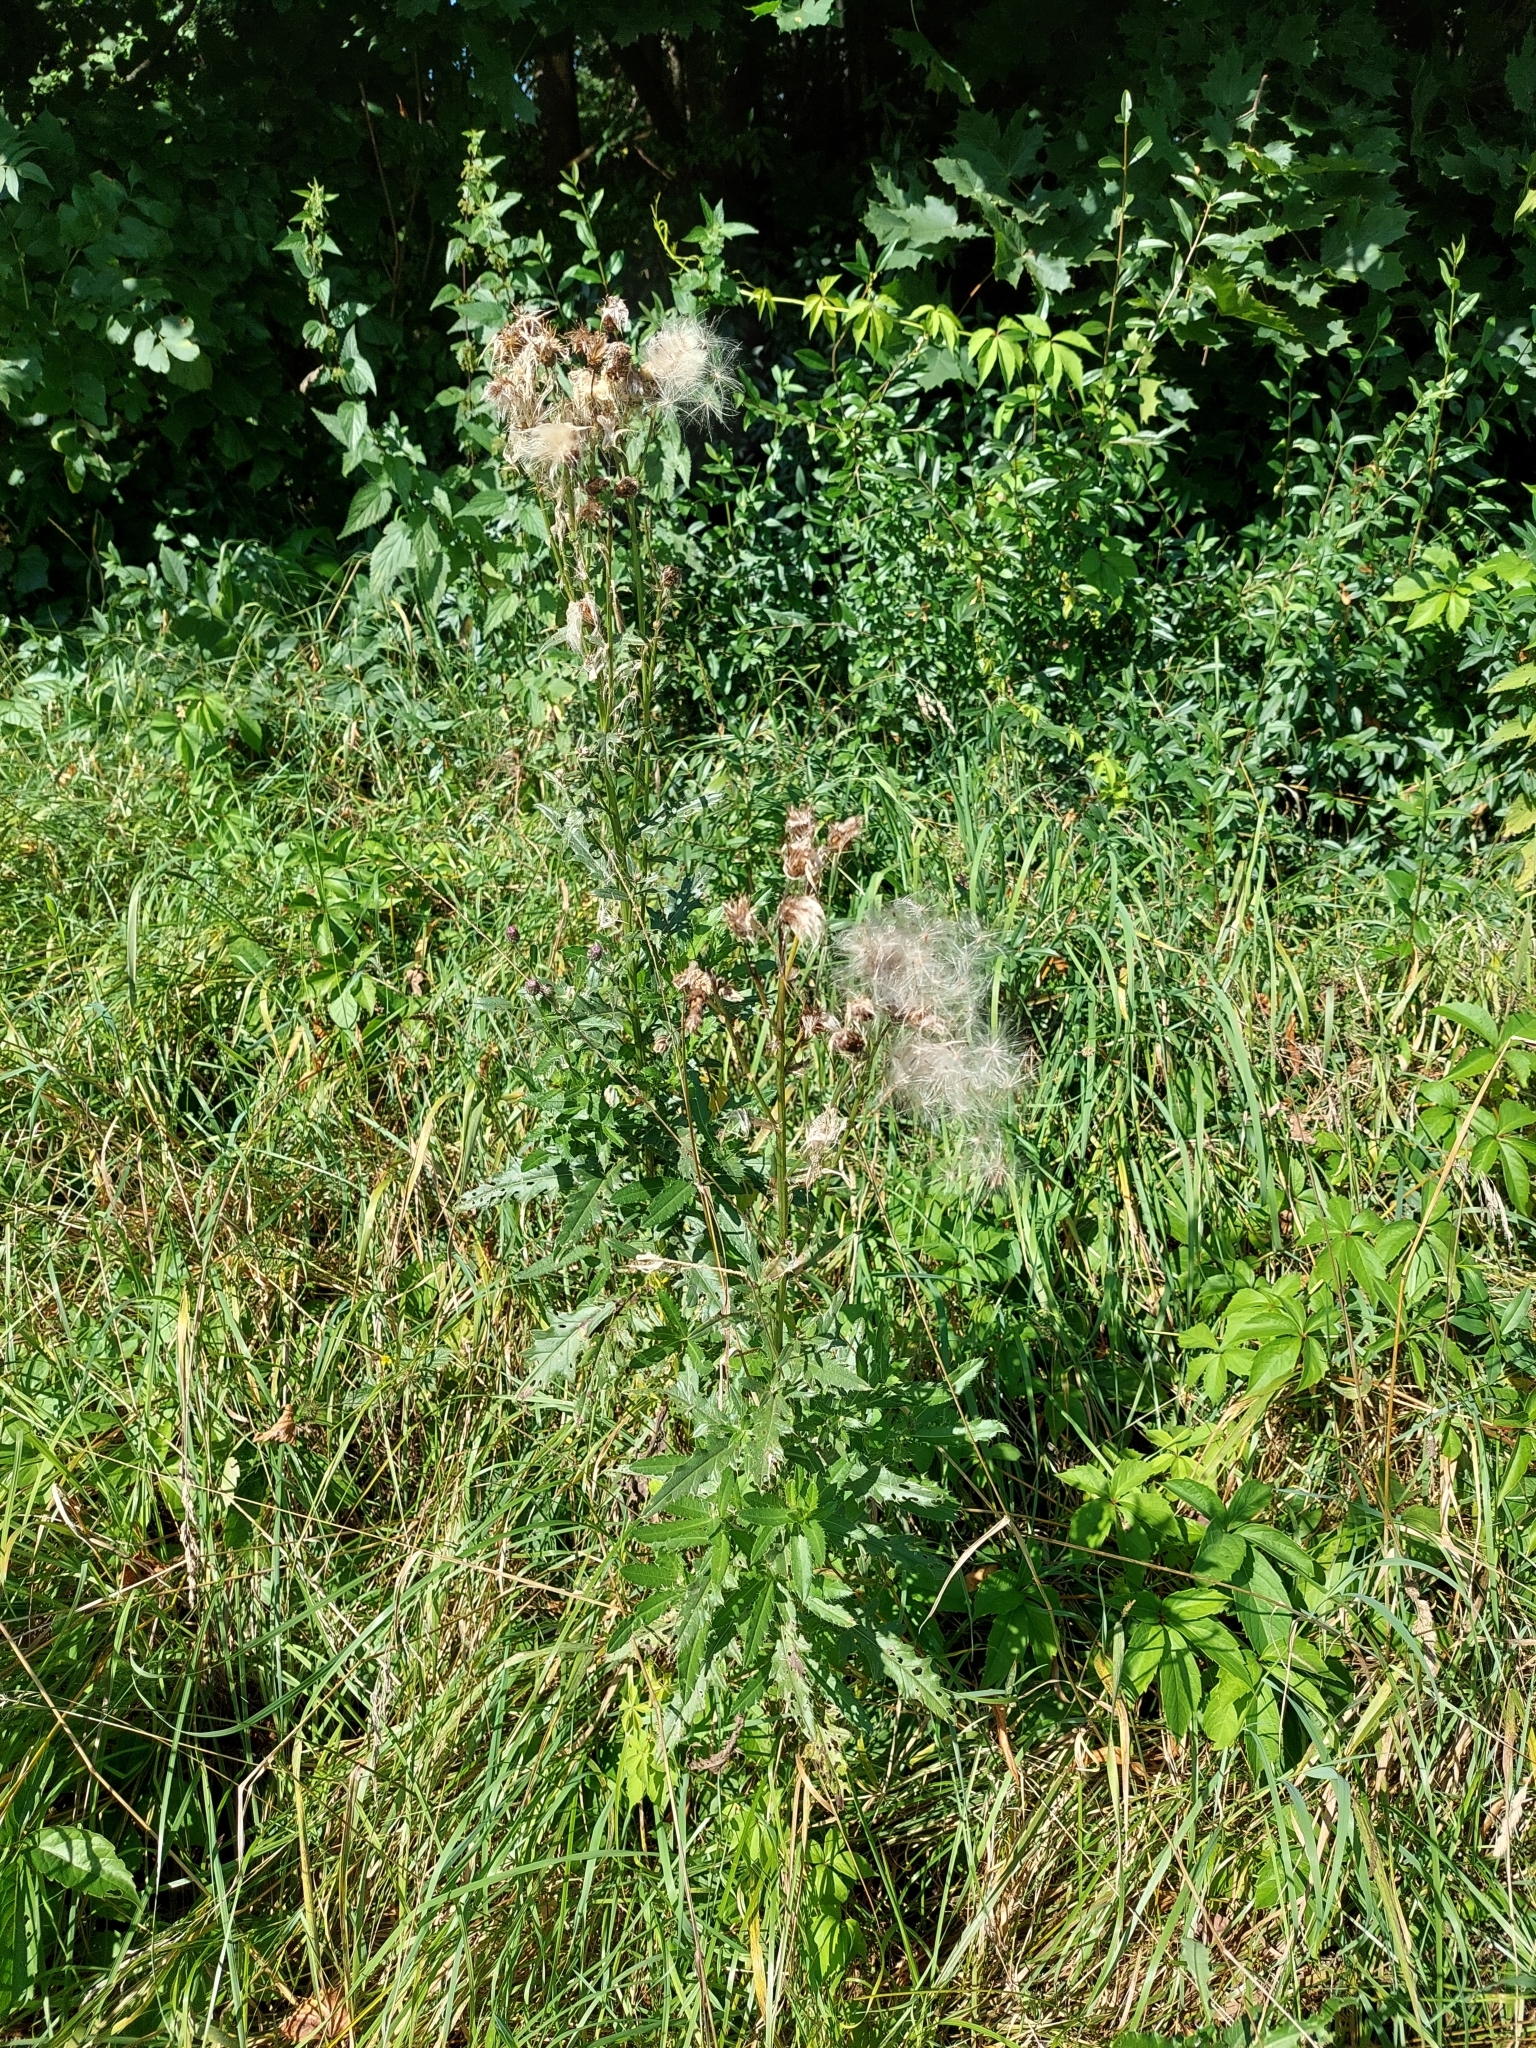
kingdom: Plantae
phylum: Tracheophyta
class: Magnoliopsida
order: Asterales
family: Asteraceae
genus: Cirsium
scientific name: Cirsium arvense
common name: Creeping thistle
